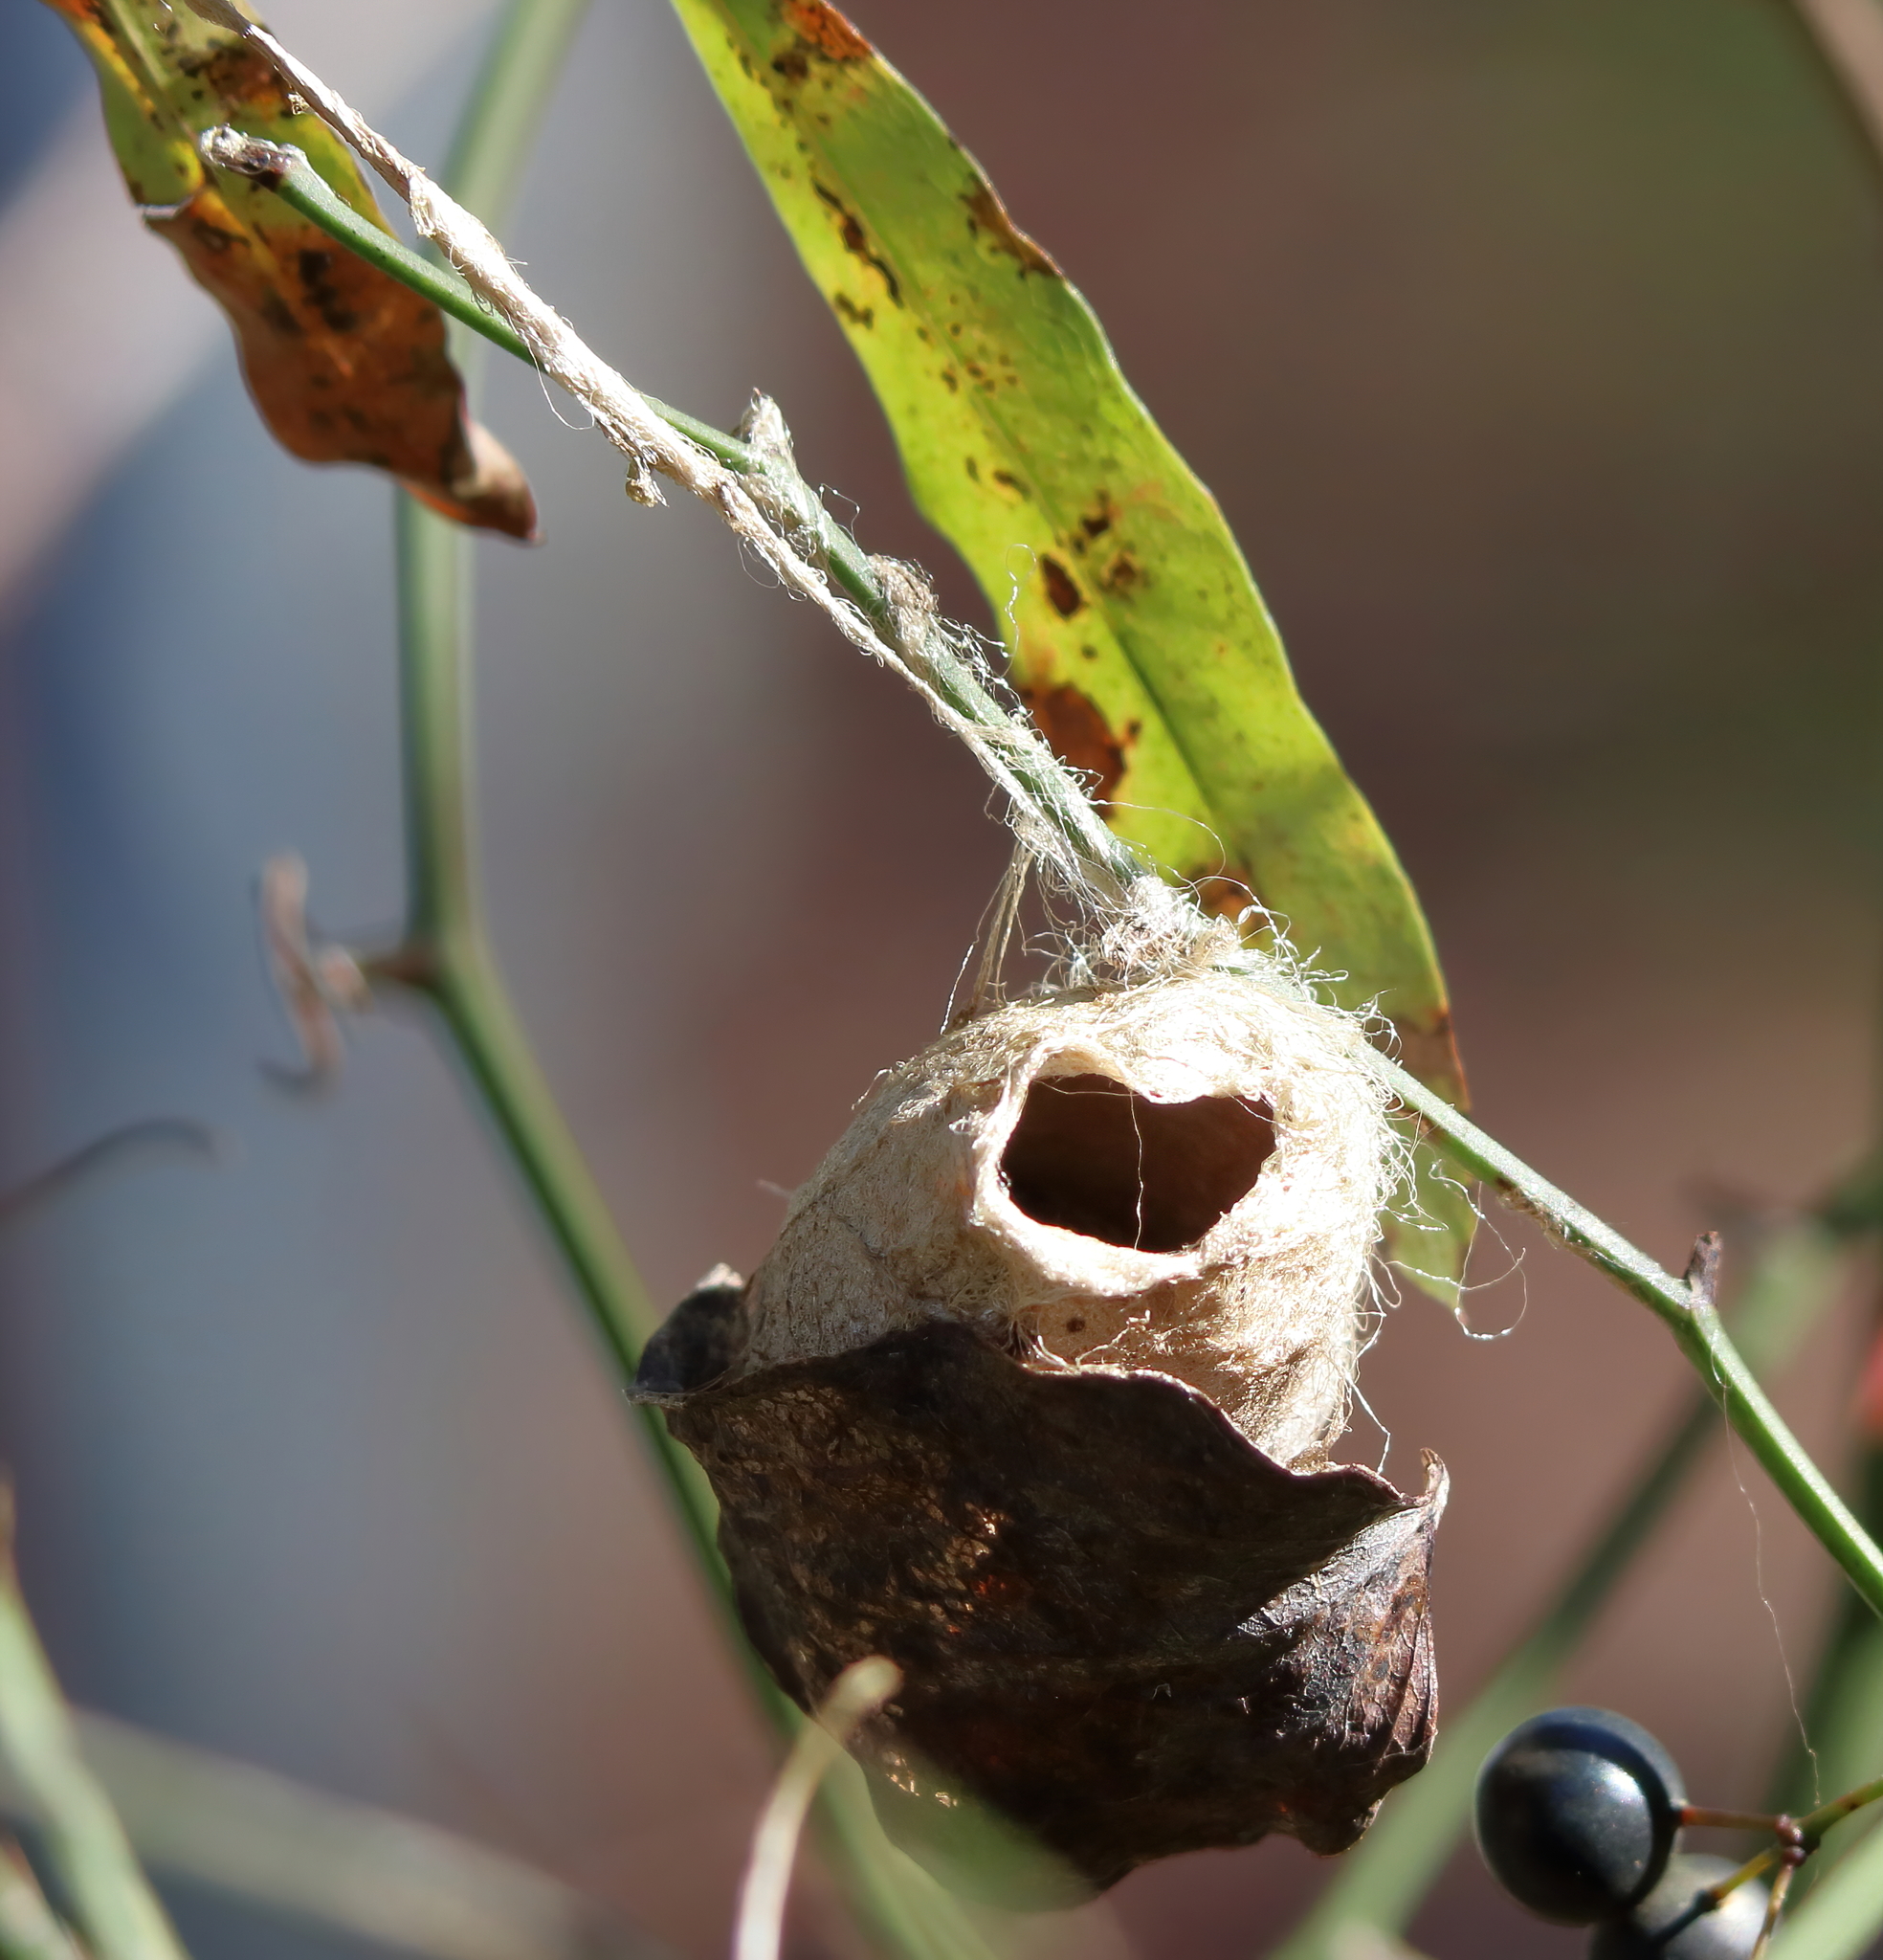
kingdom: Animalia
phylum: Arthropoda
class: Insecta
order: Lepidoptera
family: Saturniidae
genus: Antheraea
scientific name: Antheraea polyphemus
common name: Polyphemus moth
